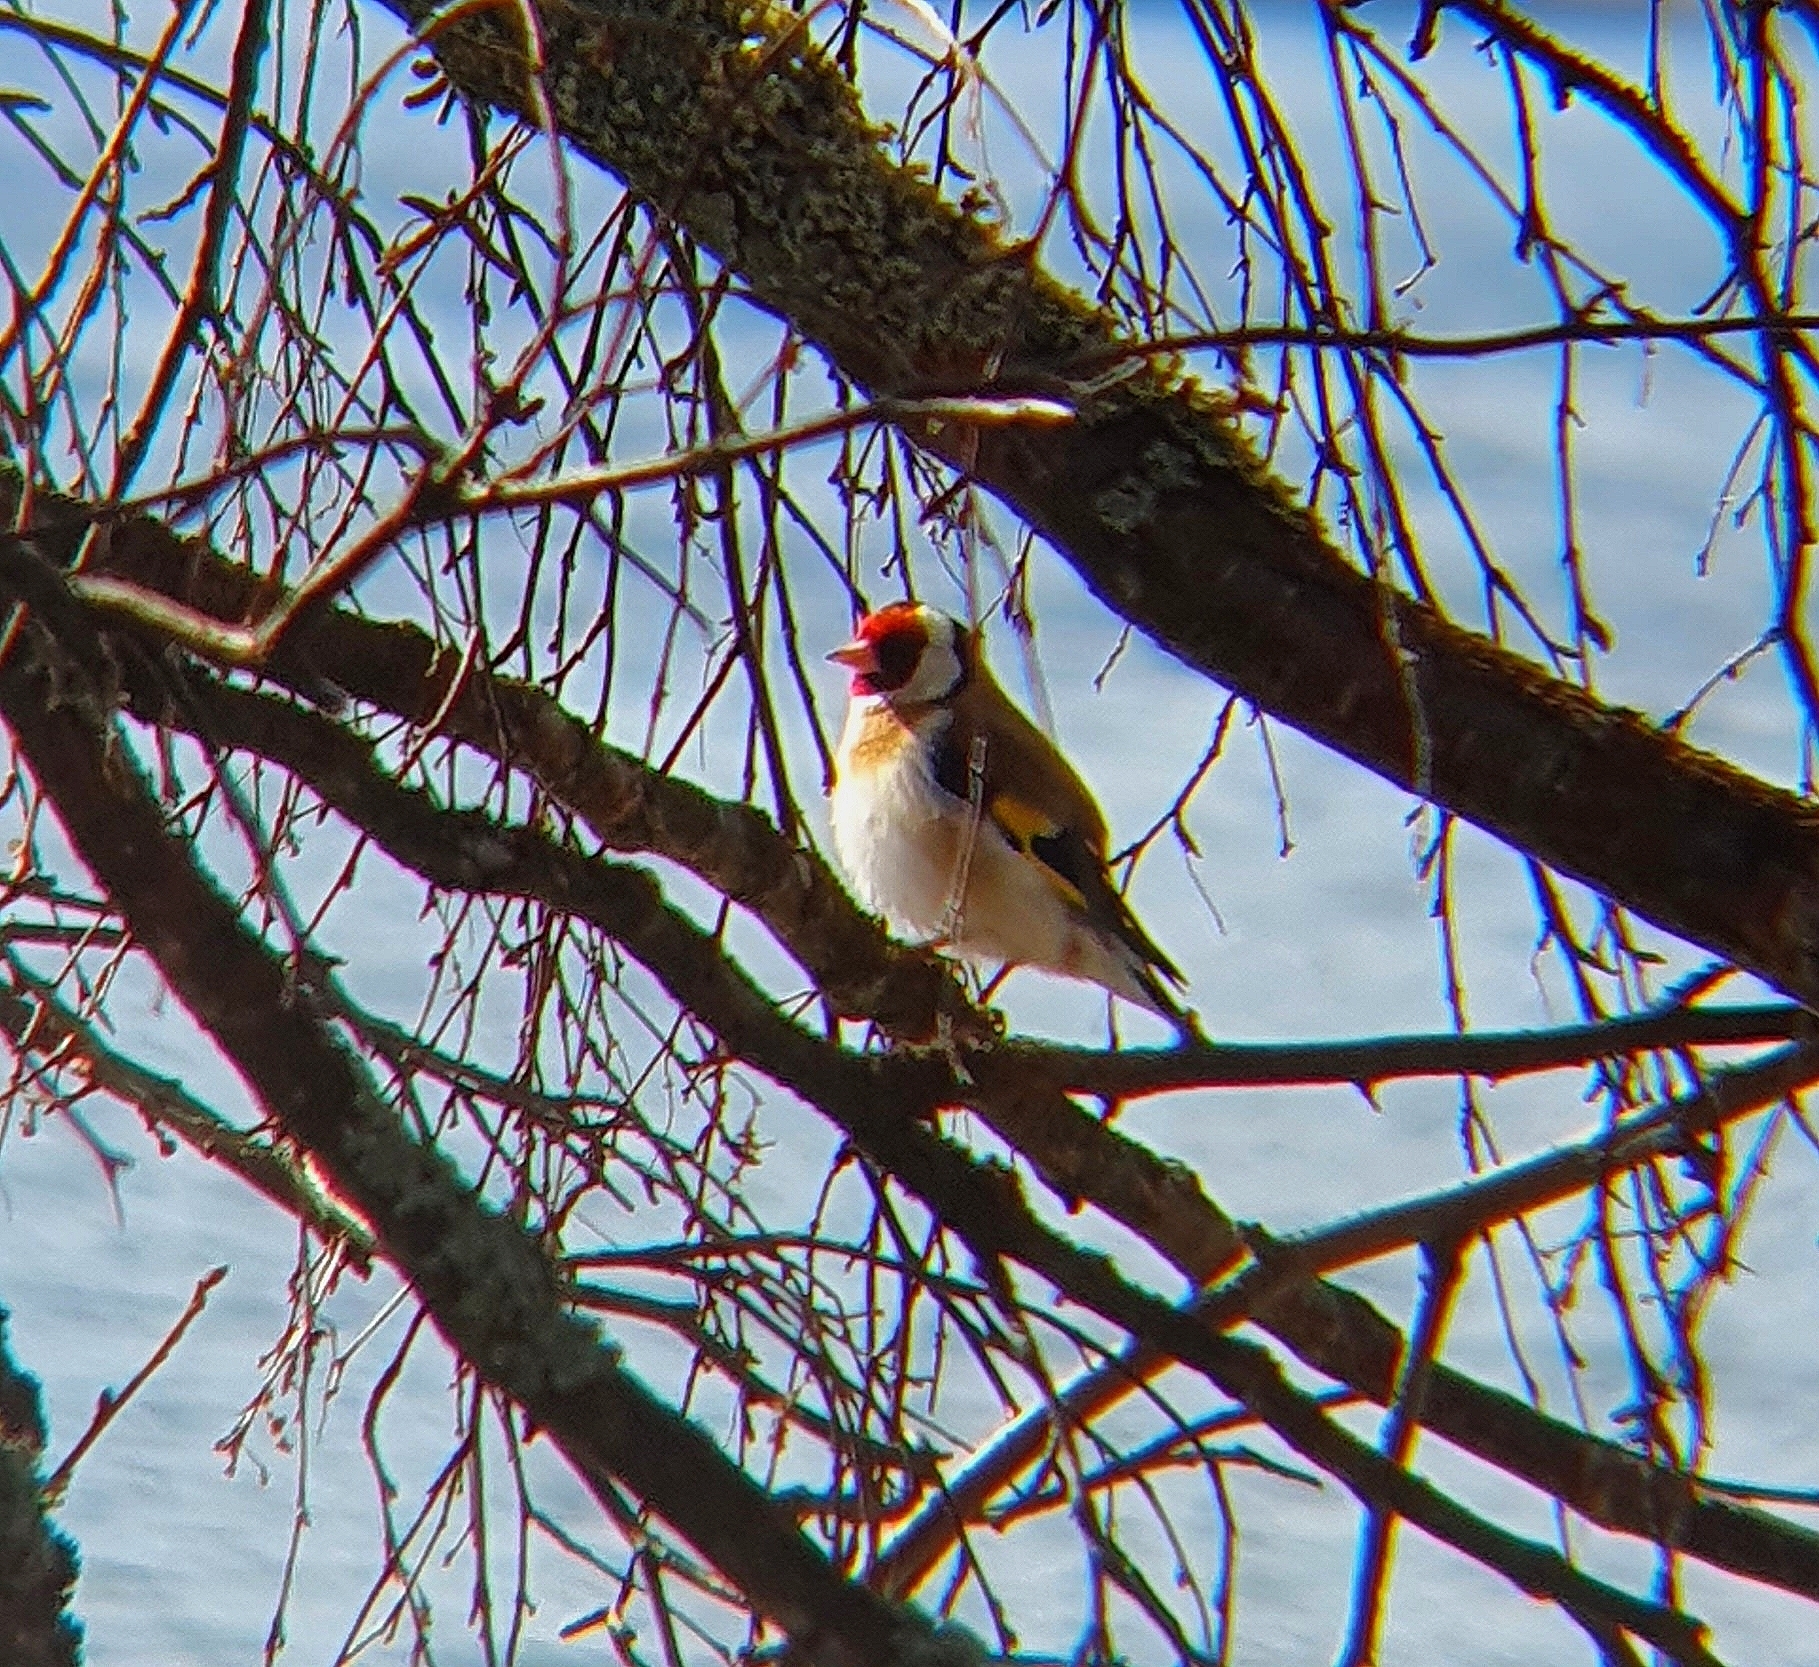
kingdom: Animalia
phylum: Chordata
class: Aves
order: Passeriformes
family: Fringillidae
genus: Carduelis
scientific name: Carduelis carduelis
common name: European goldfinch
